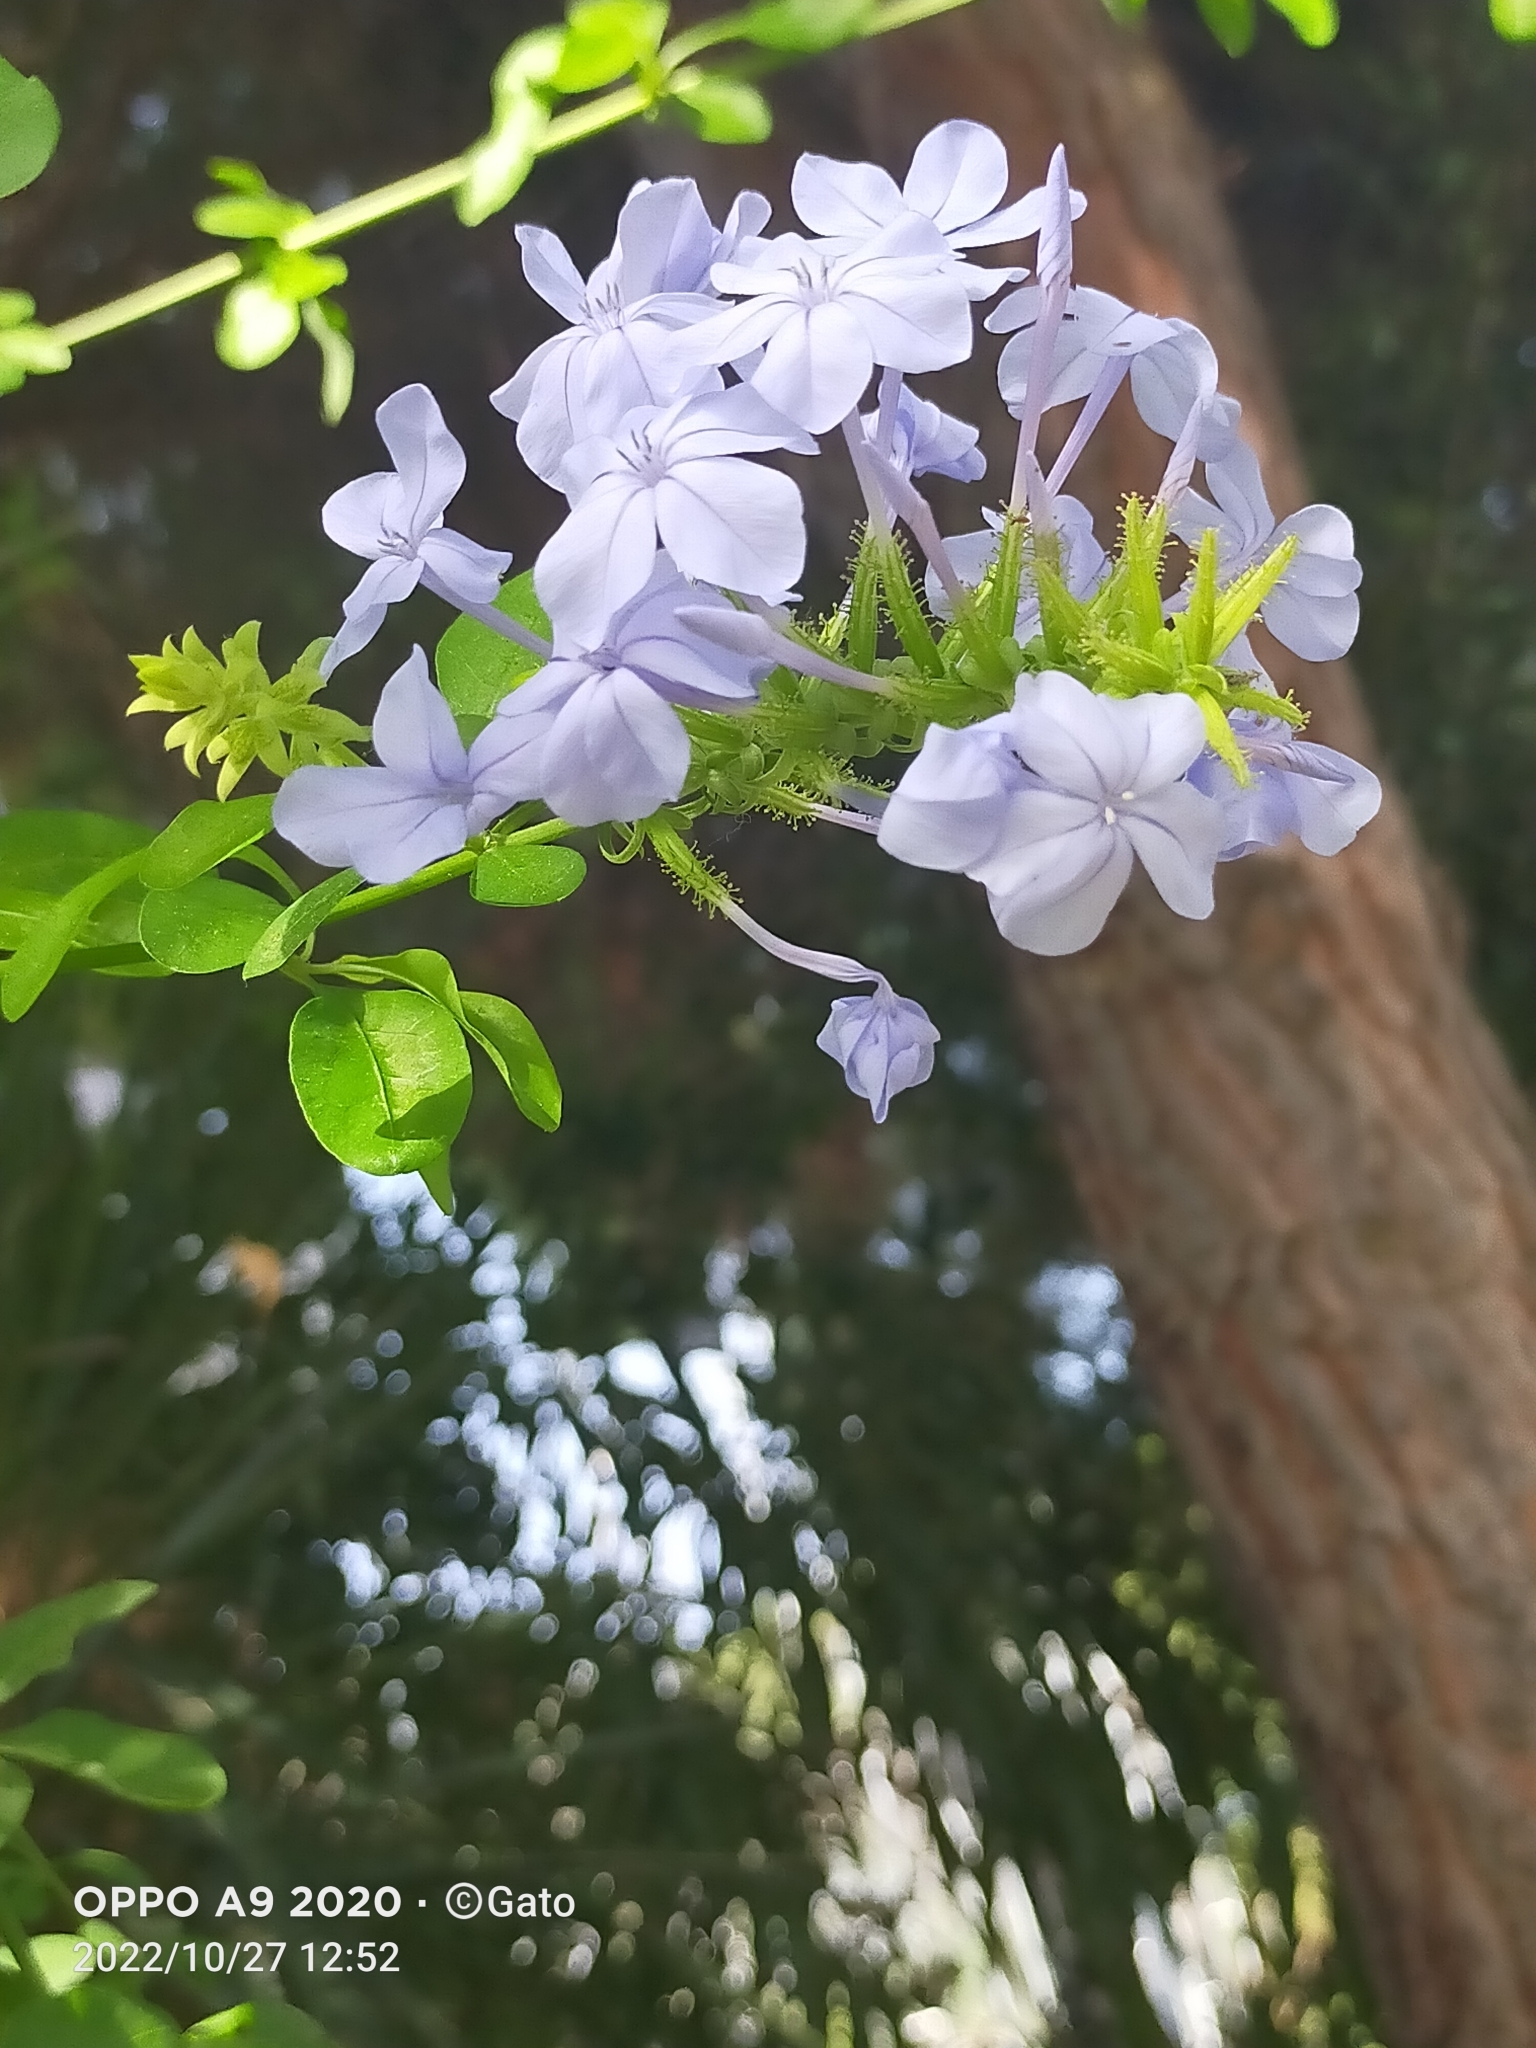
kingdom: Plantae
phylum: Tracheophyta
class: Magnoliopsida
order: Caryophyllales
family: Plumbaginaceae
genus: Plumbago
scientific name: Plumbago auriculata
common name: Cape leadwort
